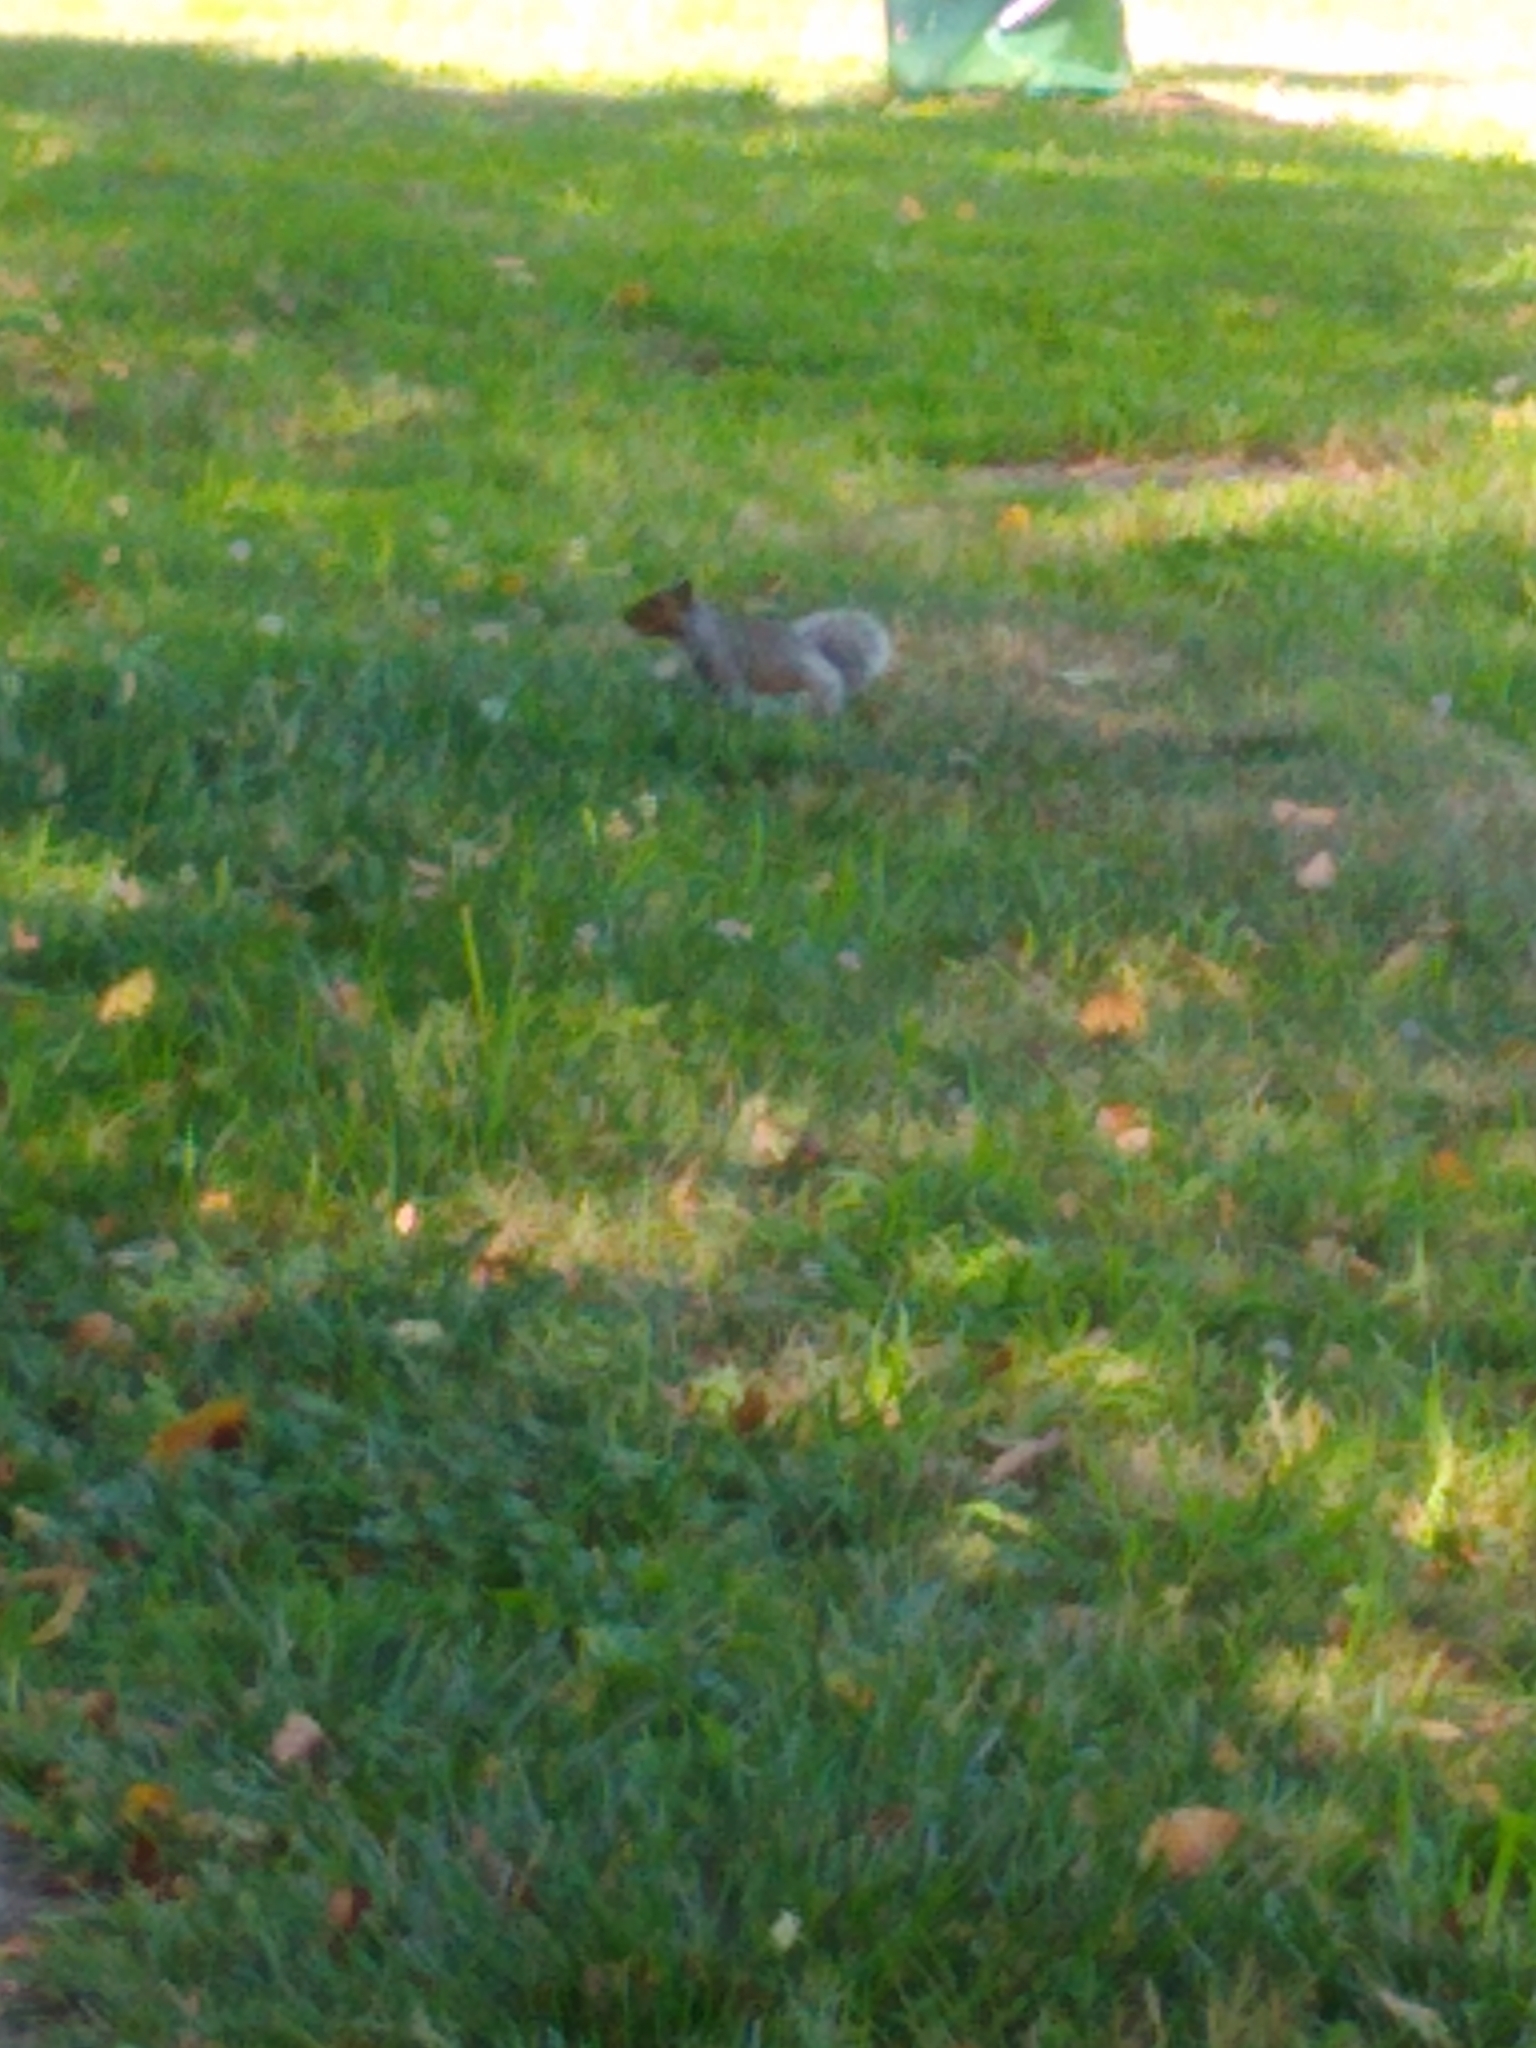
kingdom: Animalia
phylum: Chordata
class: Mammalia
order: Rodentia
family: Sciuridae
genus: Sciurus
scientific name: Sciurus carolinensis
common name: Eastern gray squirrel
